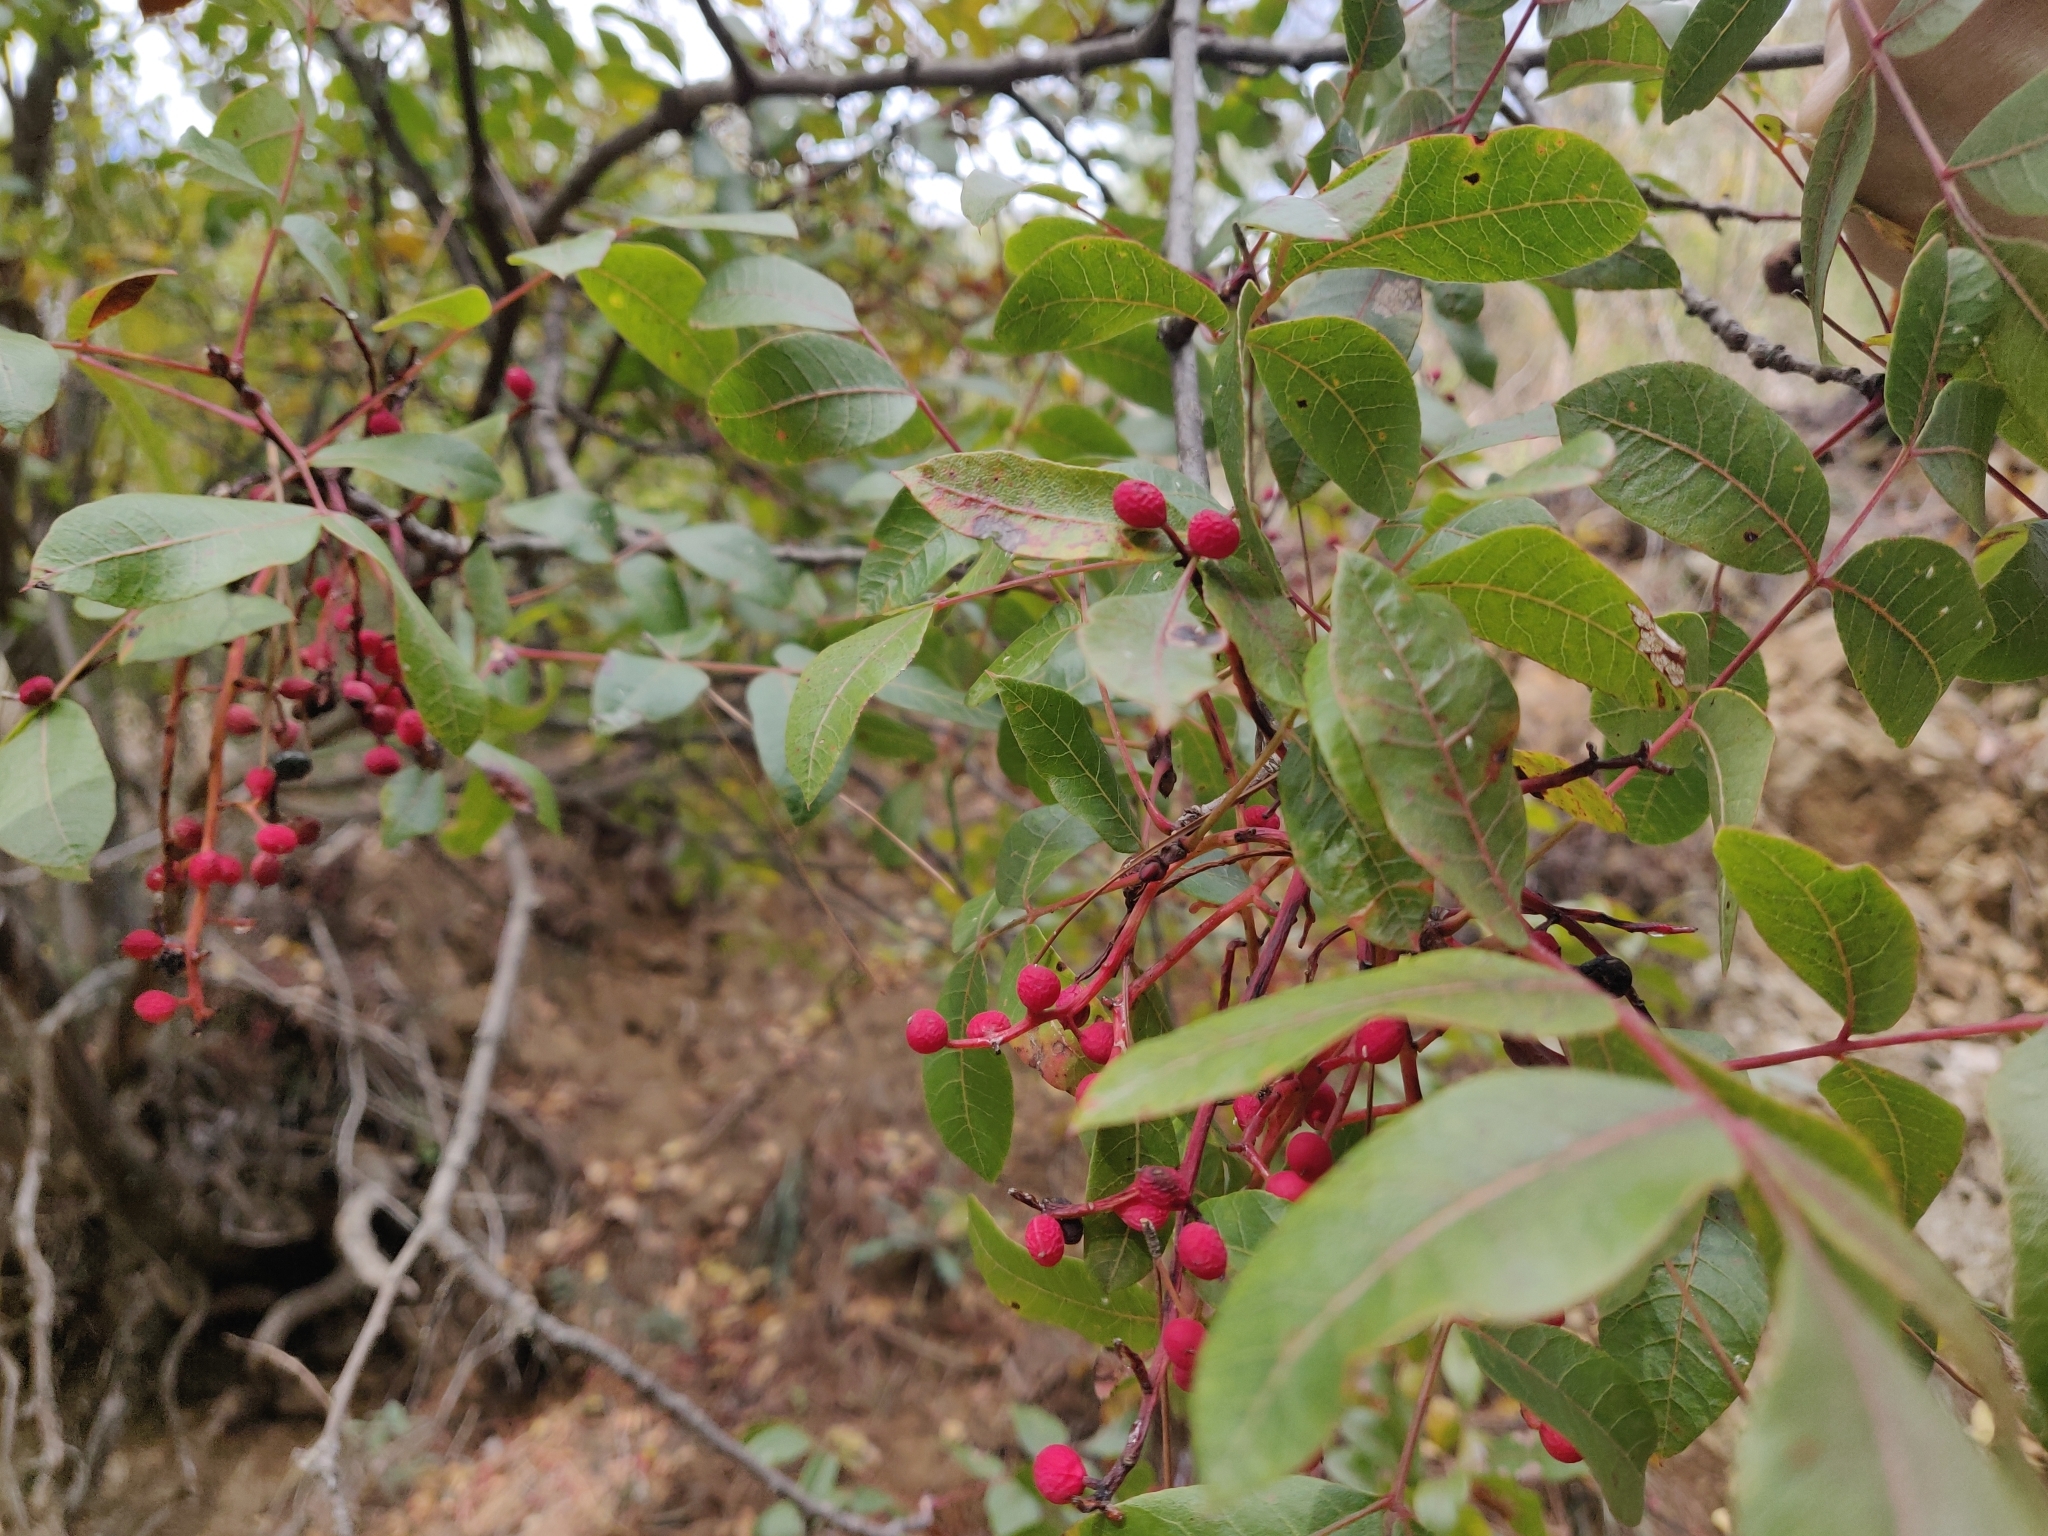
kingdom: Plantae
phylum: Tracheophyta
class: Magnoliopsida
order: Sapindales
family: Anacardiaceae
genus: Pistacia
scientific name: Pistacia terebinthus
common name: Terebinth
